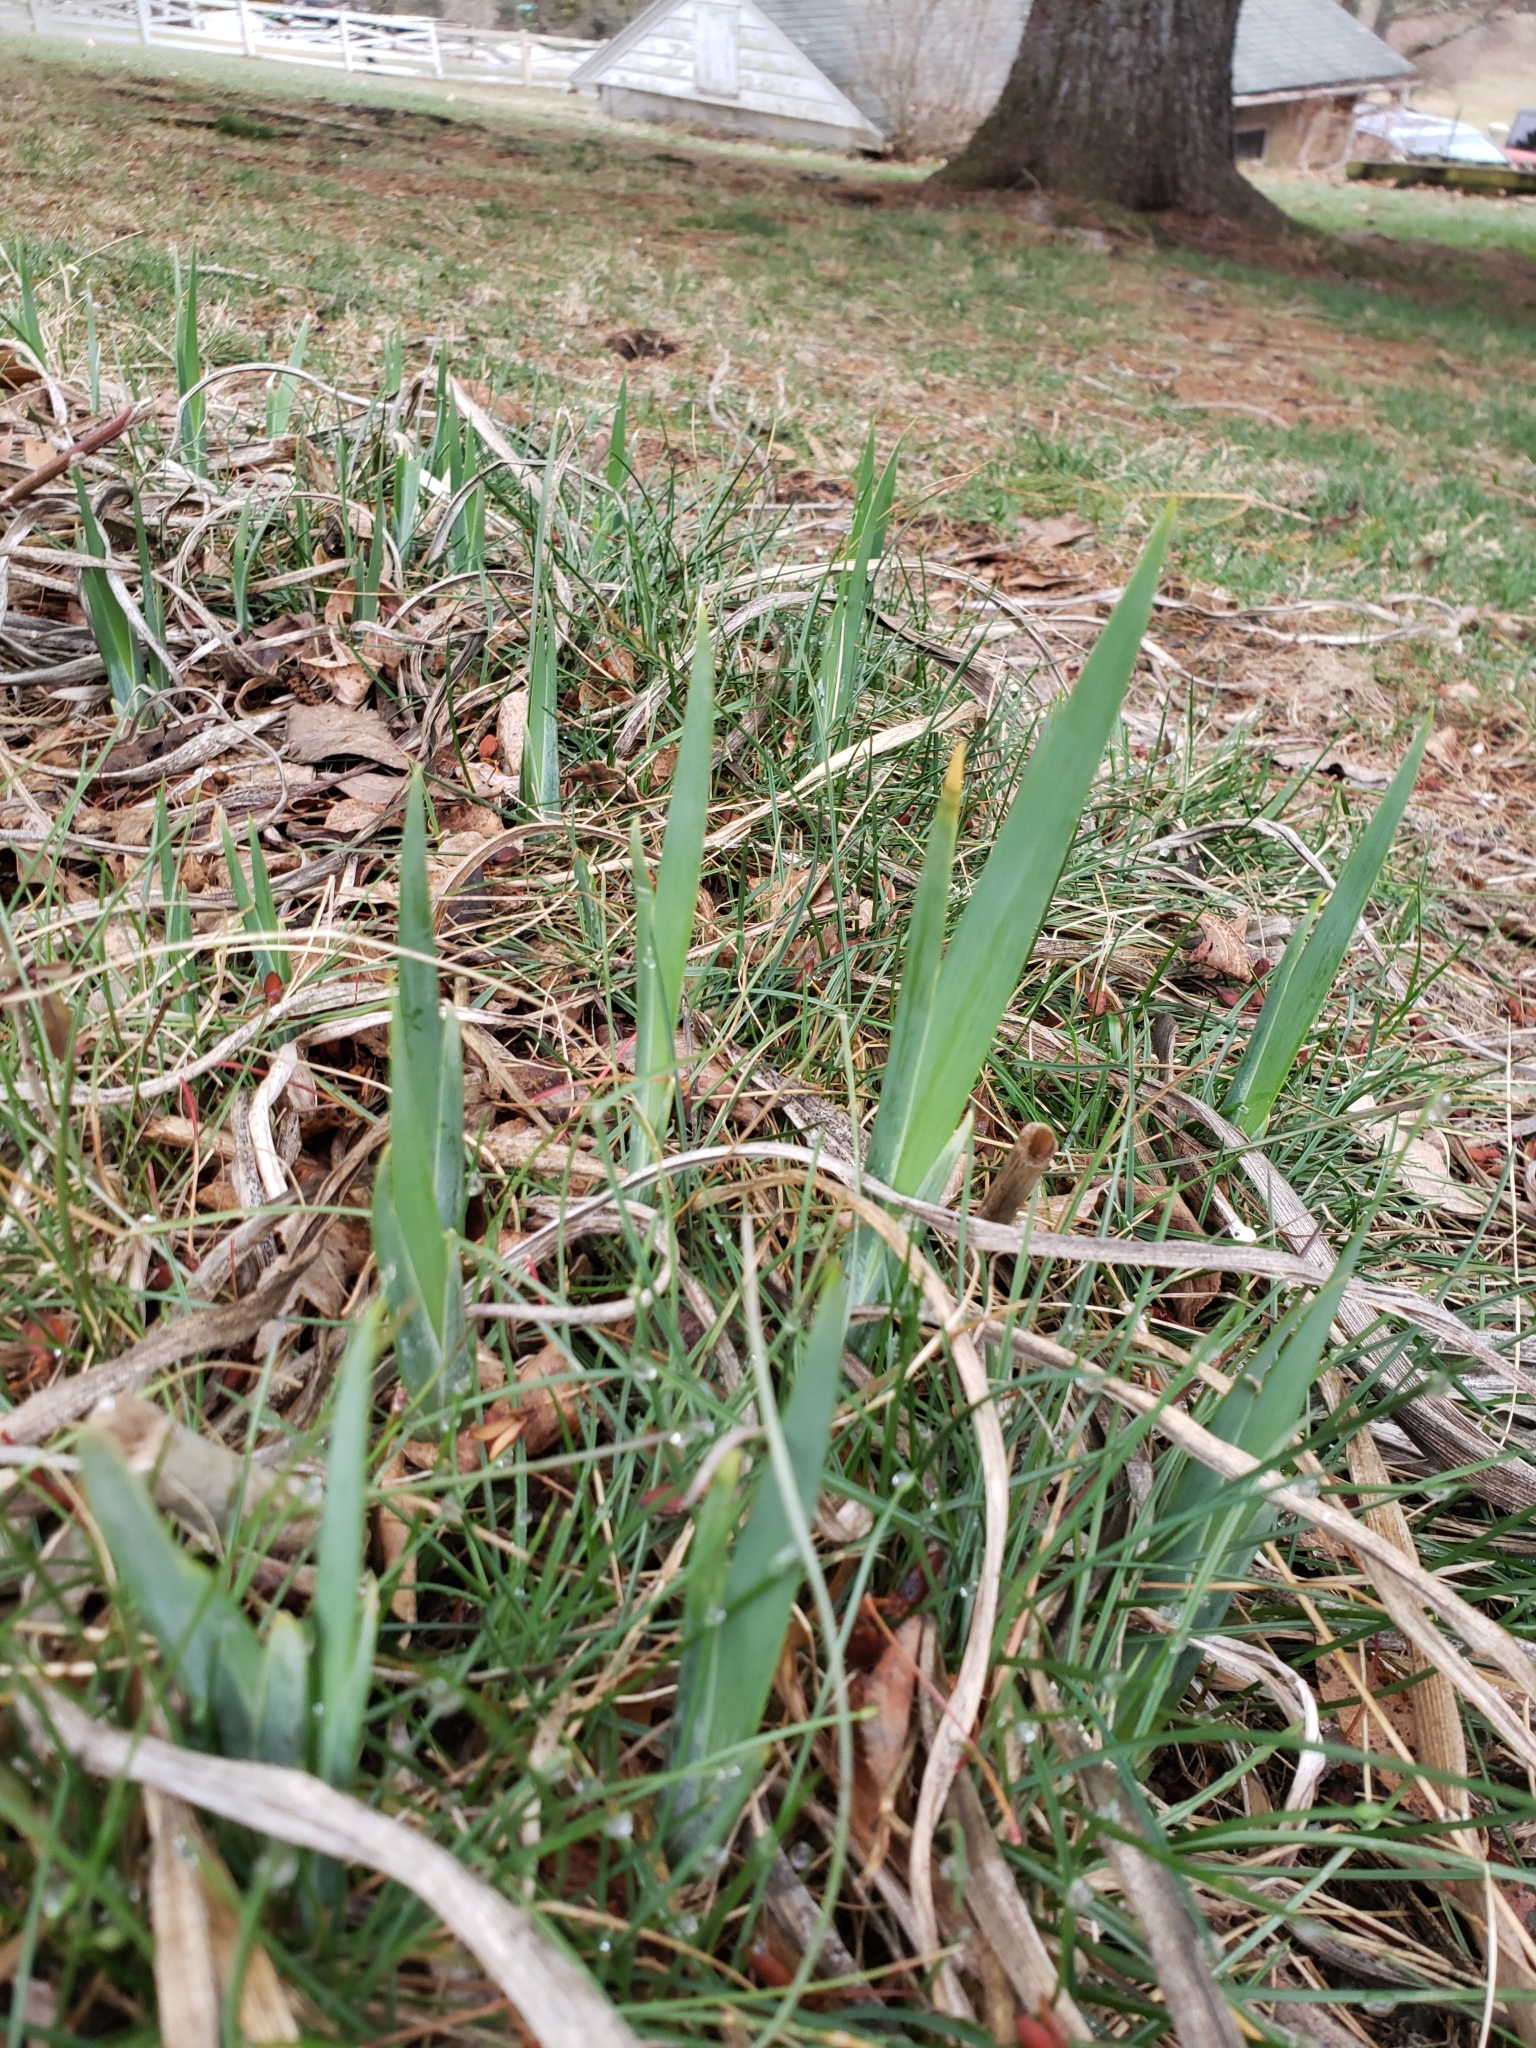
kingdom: Plantae
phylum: Tracheophyta
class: Liliopsida
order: Asparagales
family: Amaryllidaceae
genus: Narcissus
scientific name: Narcissus
